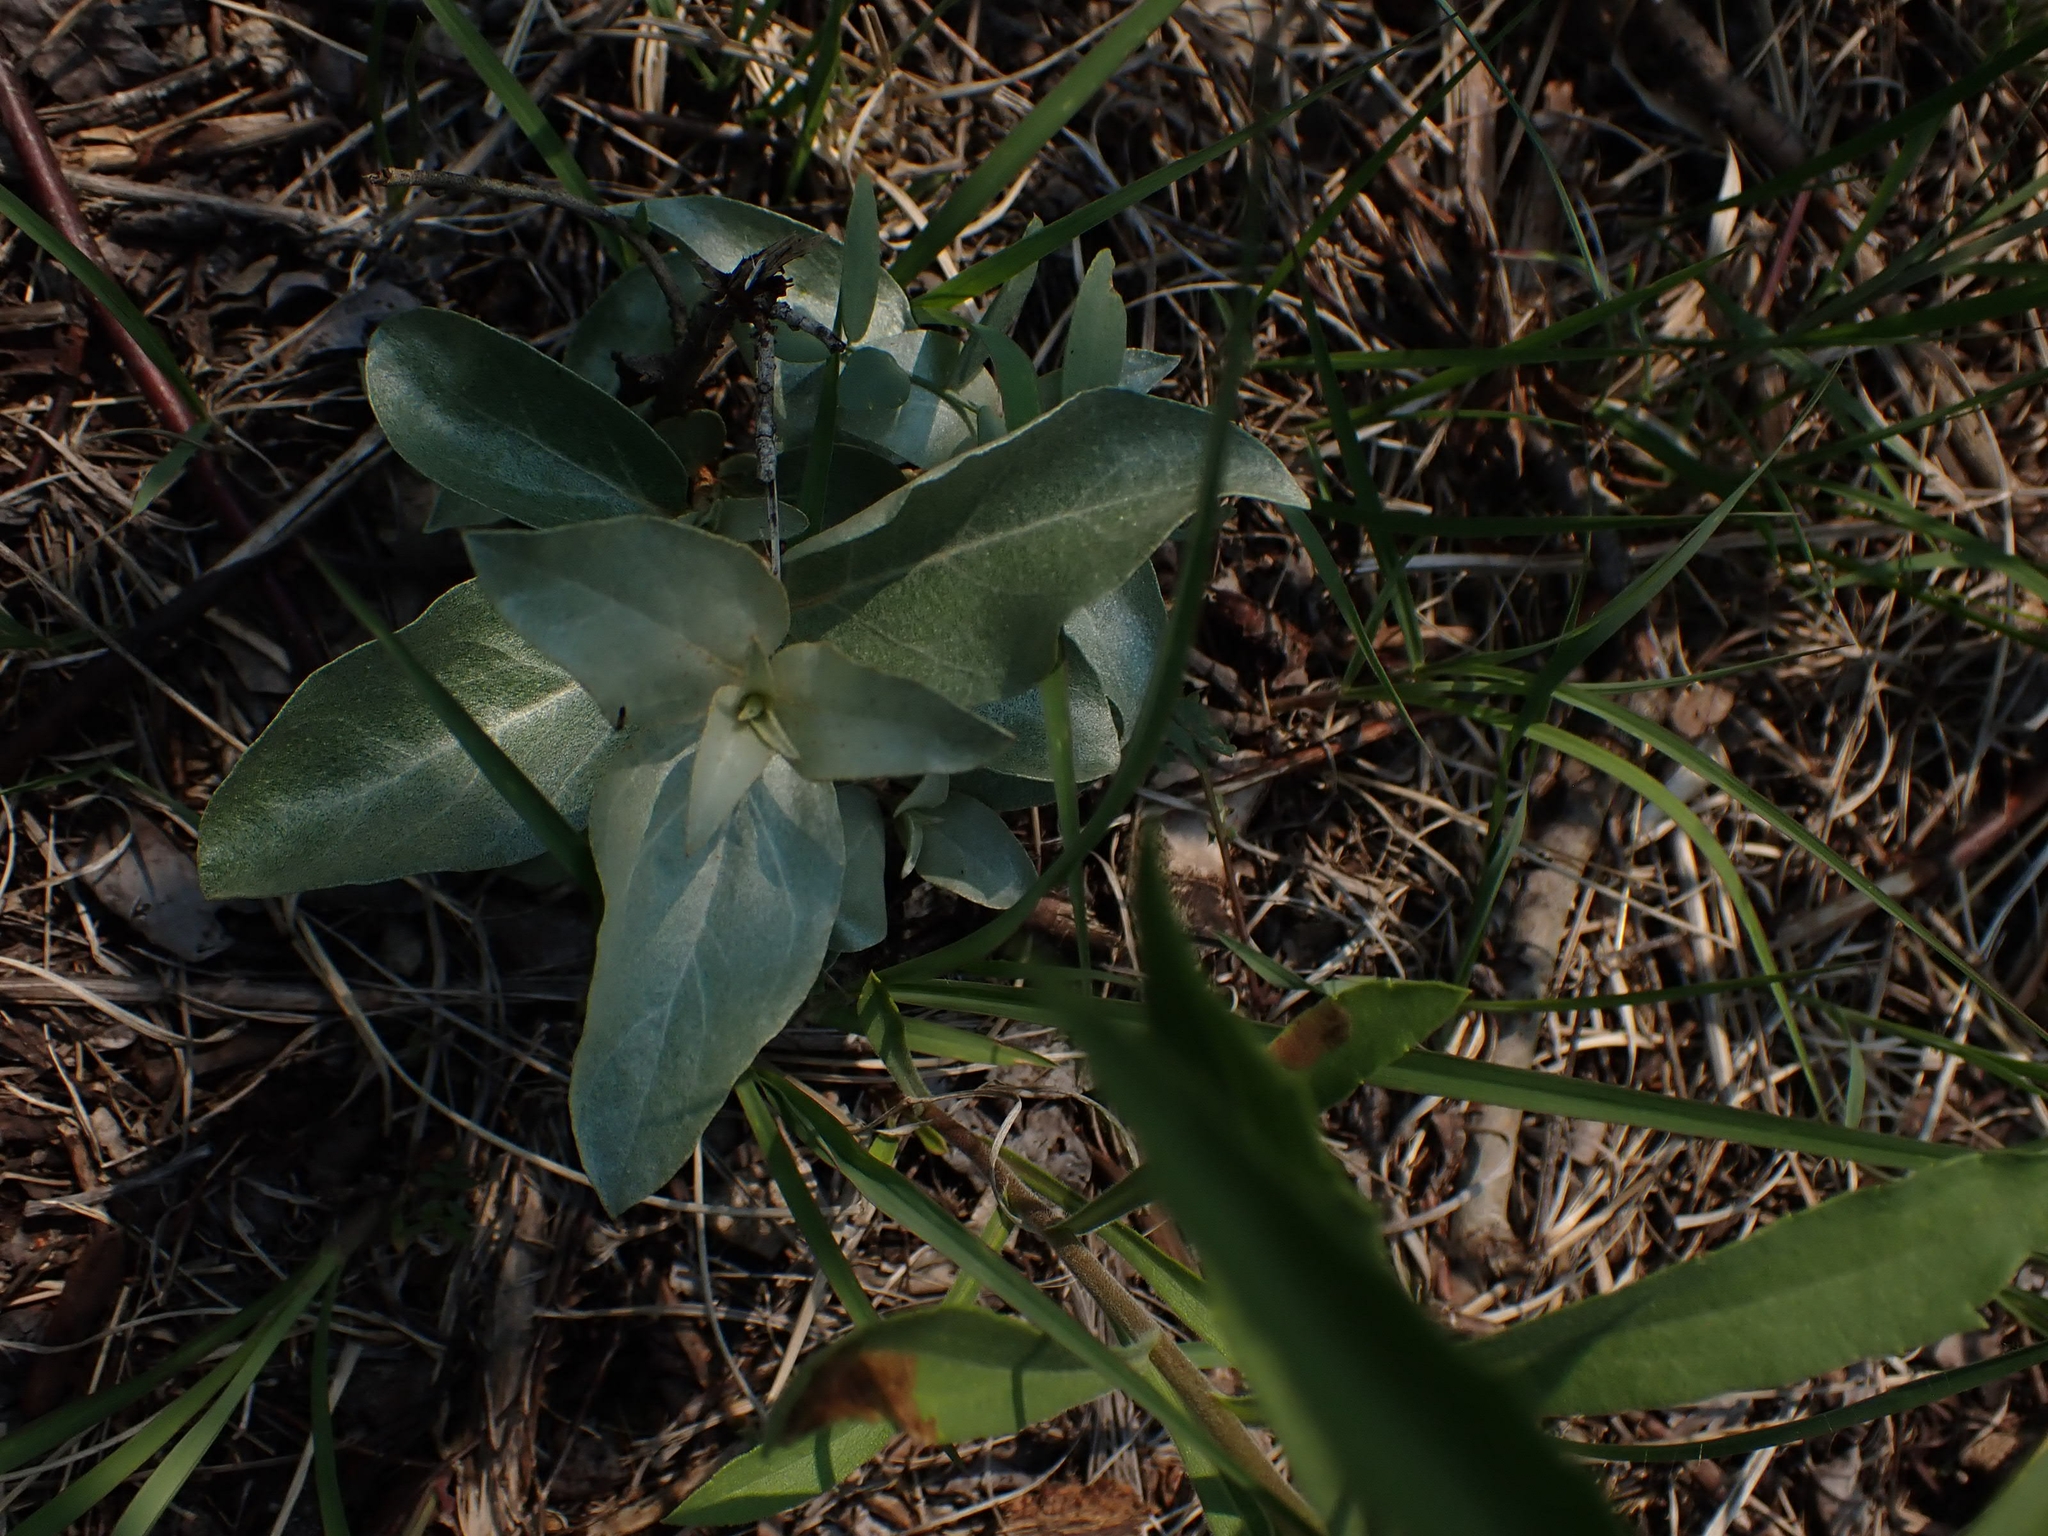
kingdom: Plantae
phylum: Tracheophyta
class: Magnoliopsida
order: Rosales
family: Elaeagnaceae
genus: Elaeagnus
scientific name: Elaeagnus commutata
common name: Silverberry
